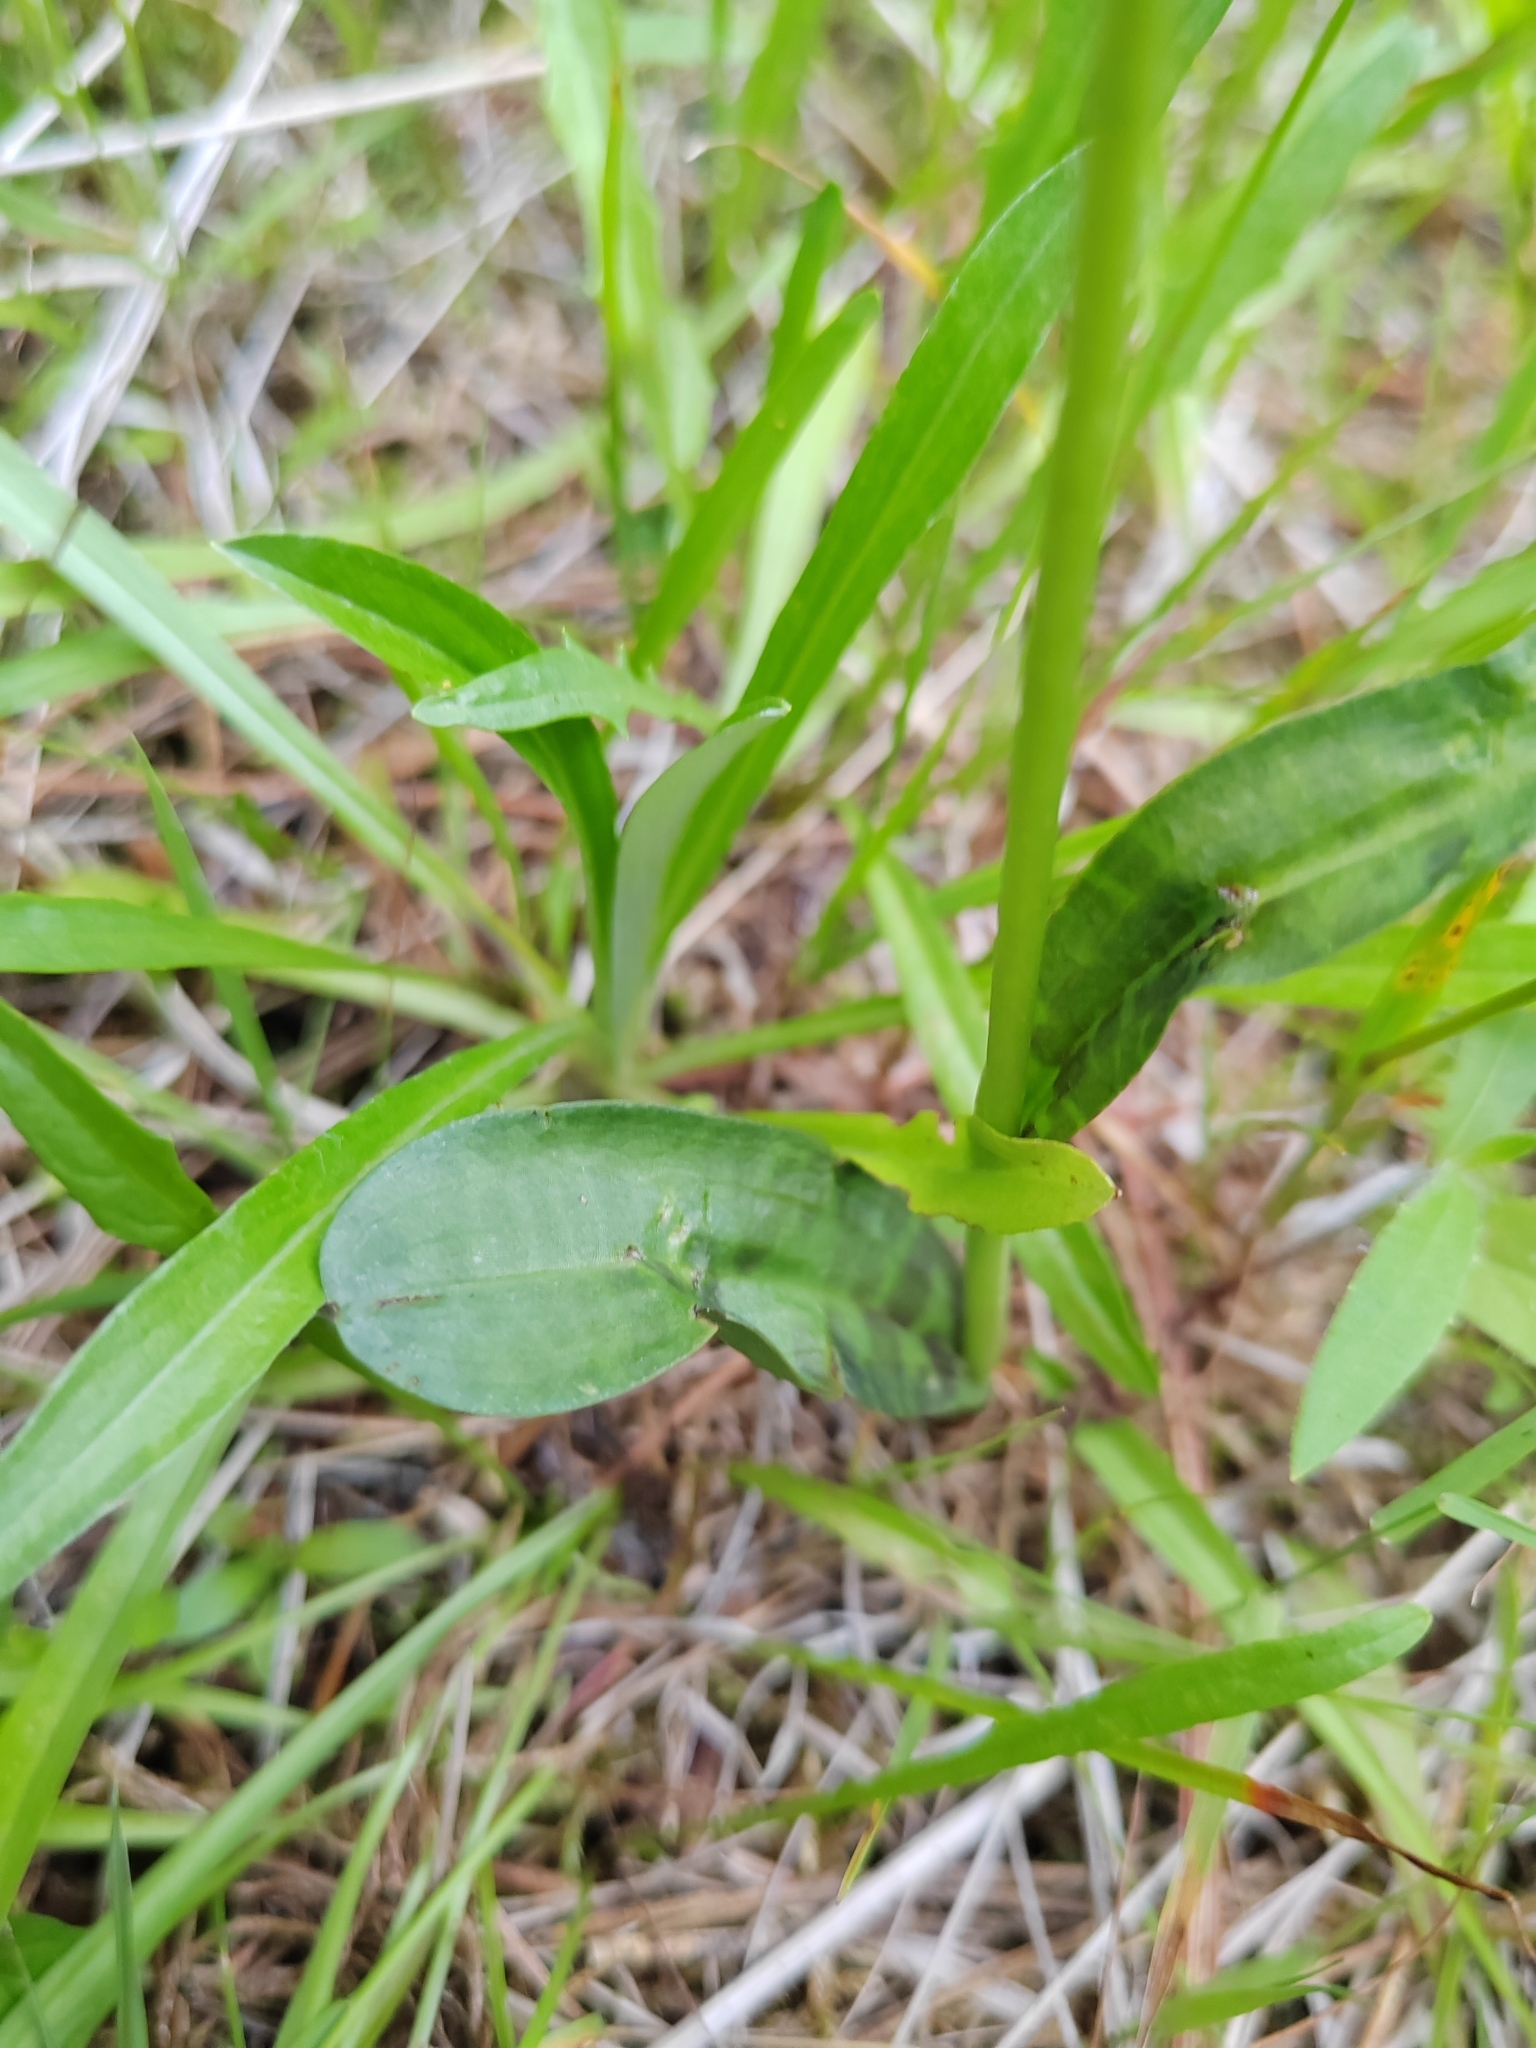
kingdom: Plantae
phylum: Tracheophyta
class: Liliopsida
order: Asparagales
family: Orchidaceae
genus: Dactylorhiza
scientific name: Dactylorhiza maculata
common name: Heath spotted-orchid
